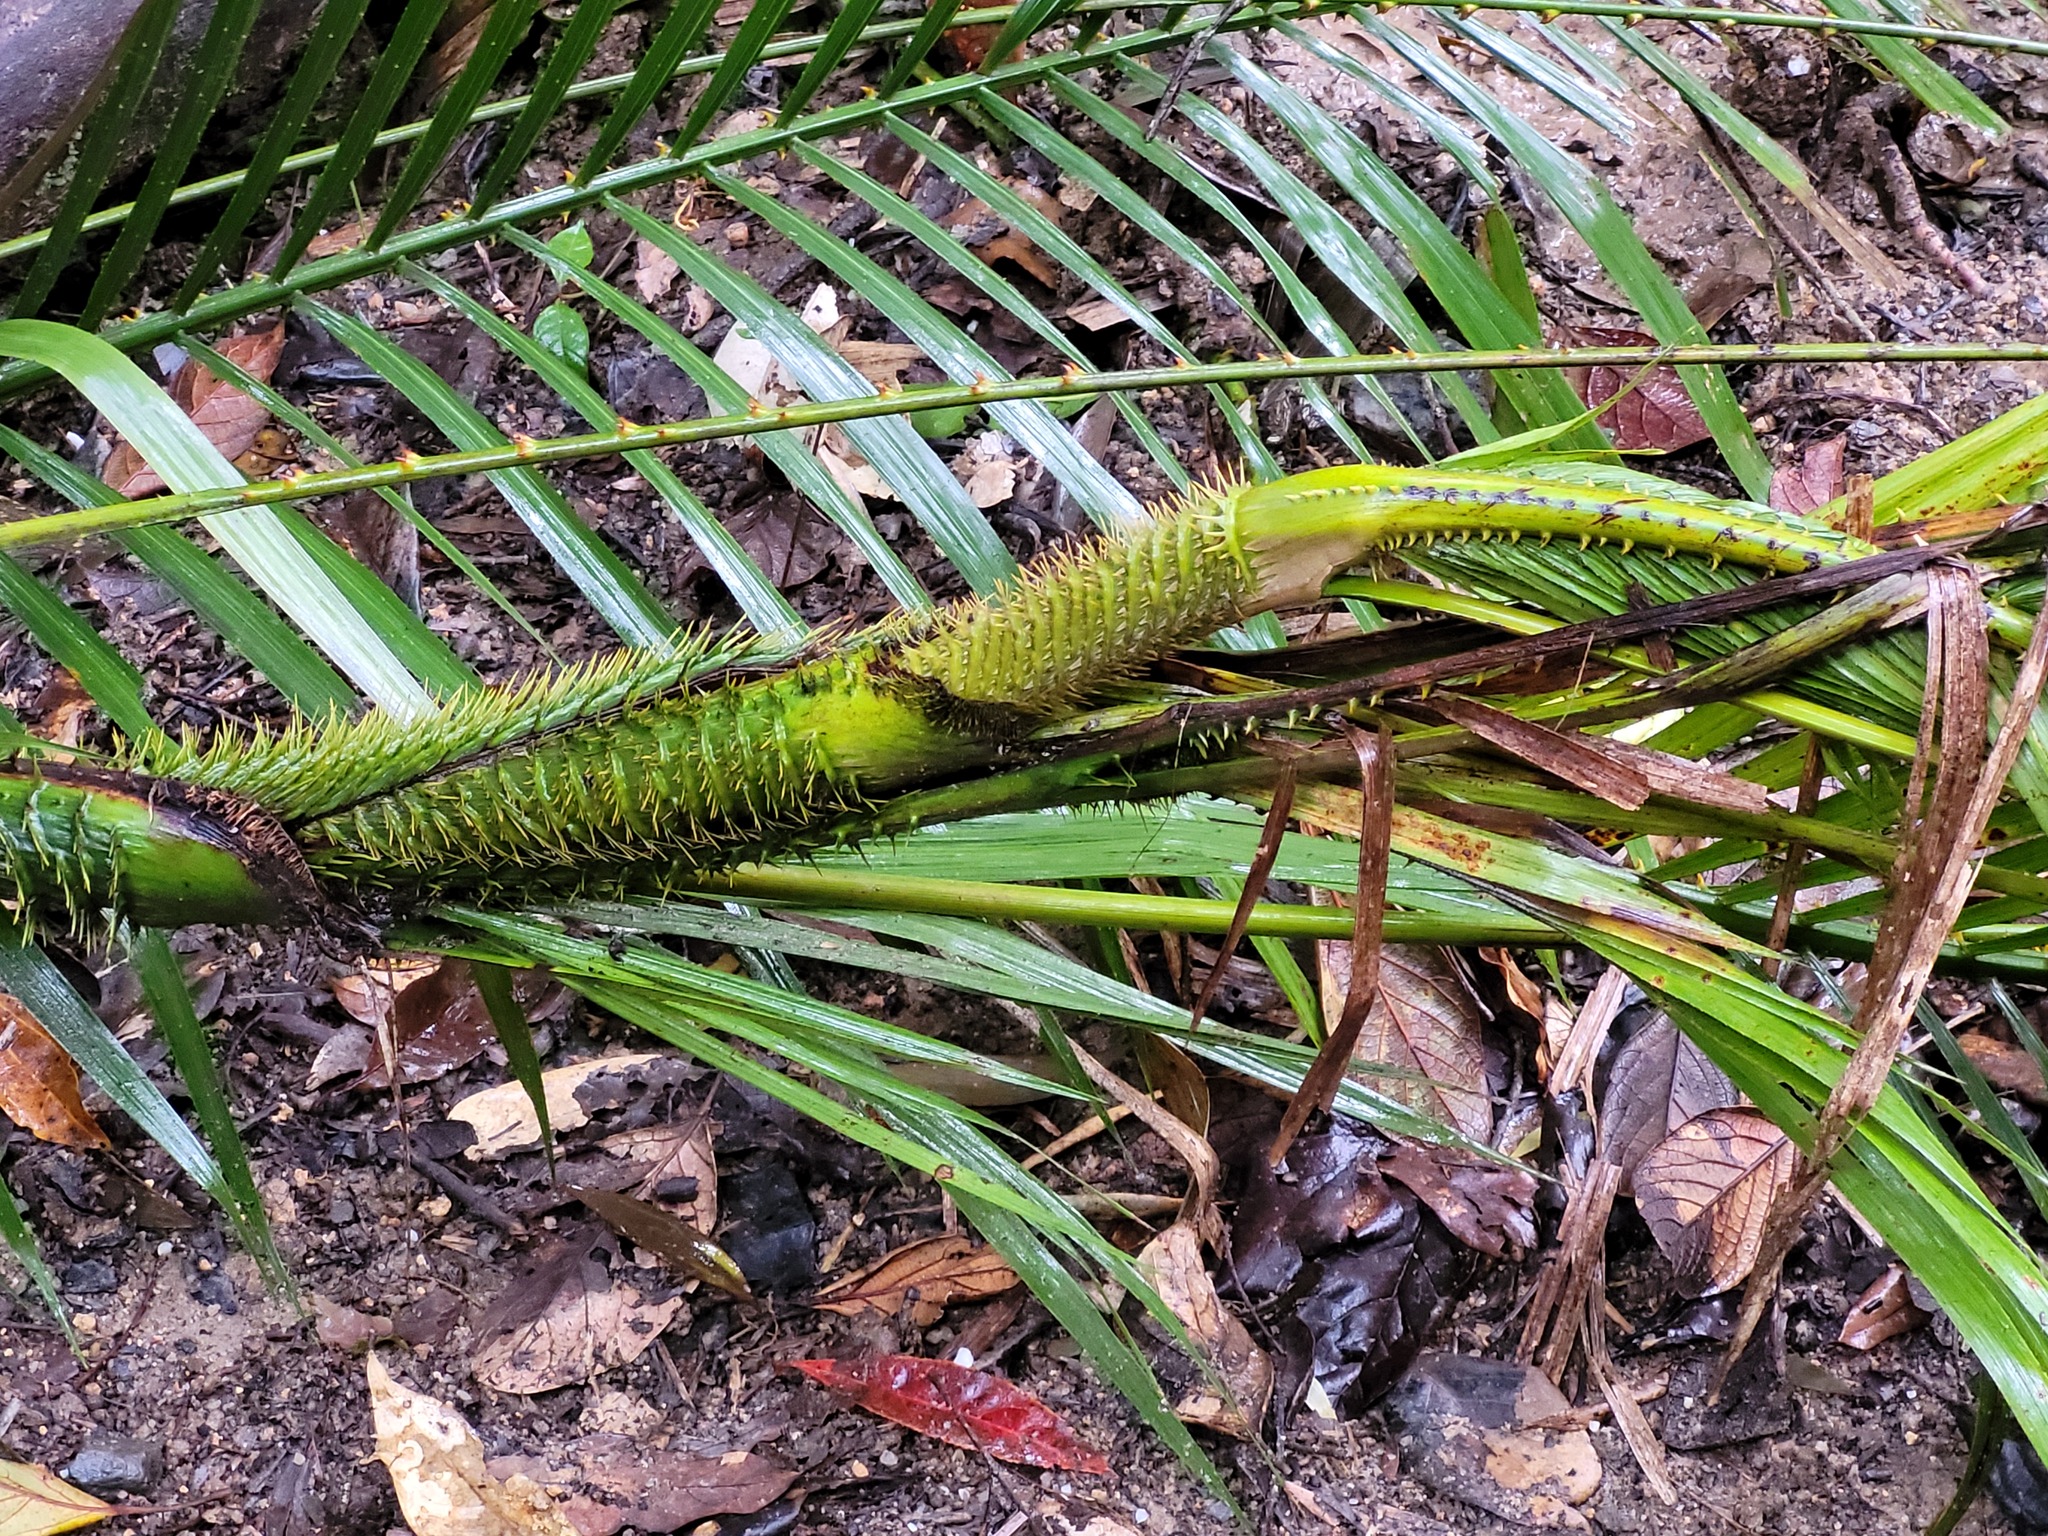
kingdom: Plantae
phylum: Tracheophyta
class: Liliopsida
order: Arecales
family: Arecaceae
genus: Calamus
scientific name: Calamus moti
